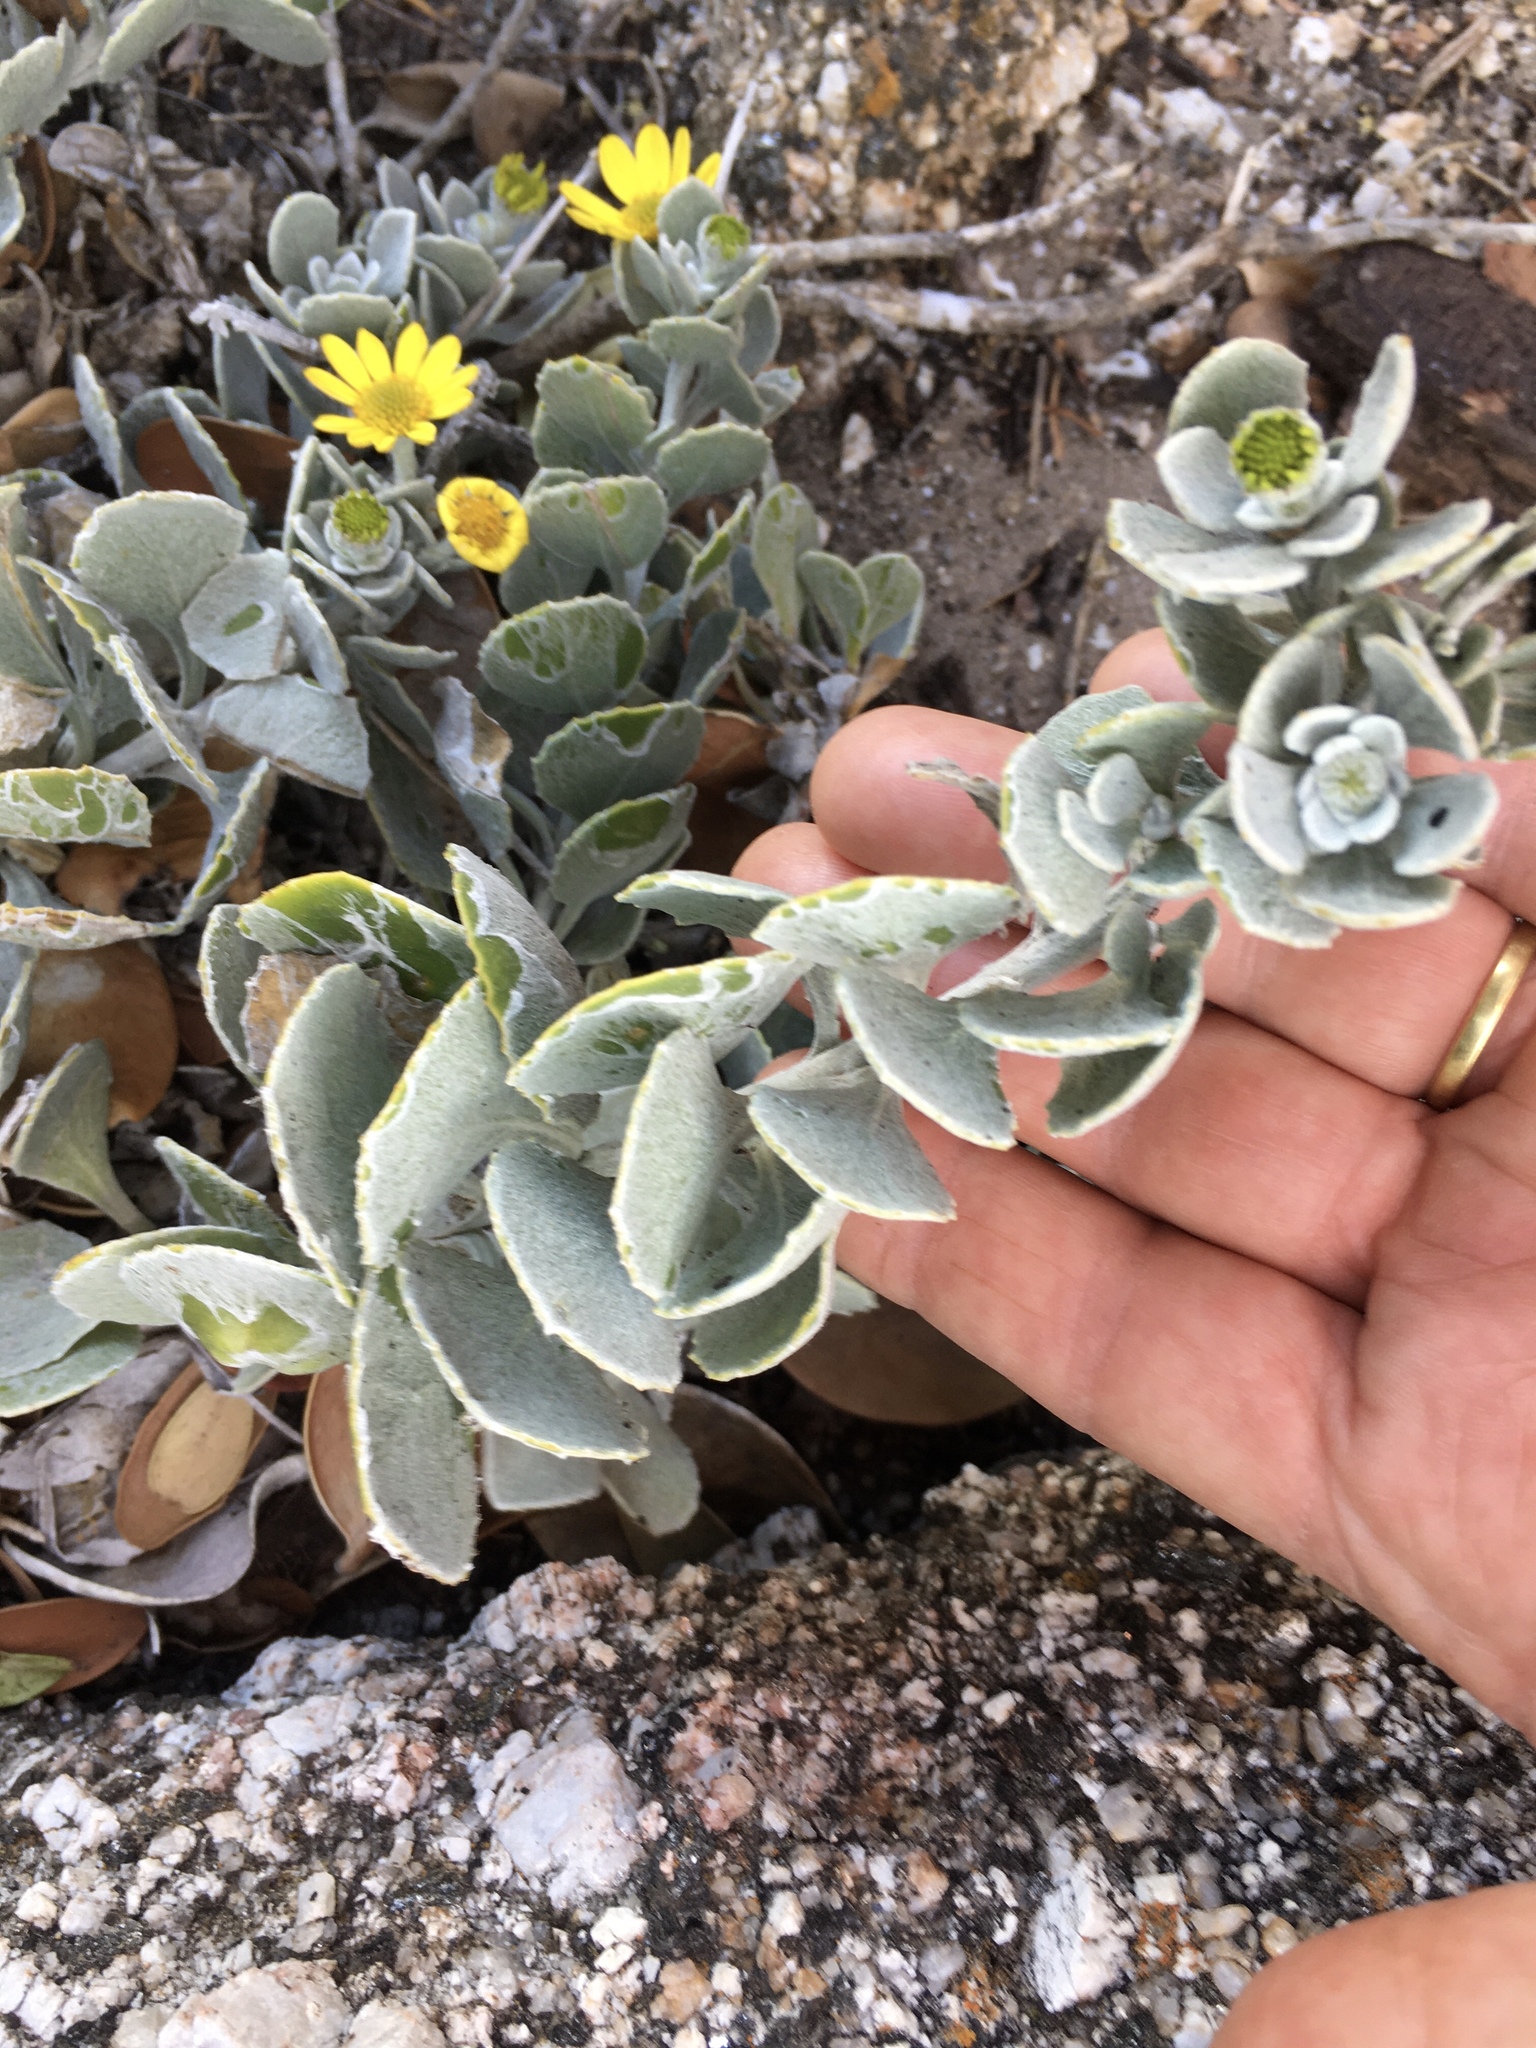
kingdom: Plantae
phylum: Tracheophyta
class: Magnoliopsida
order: Asterales
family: Asteraceae
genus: Osteospermum
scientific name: Osteospermum incanum
